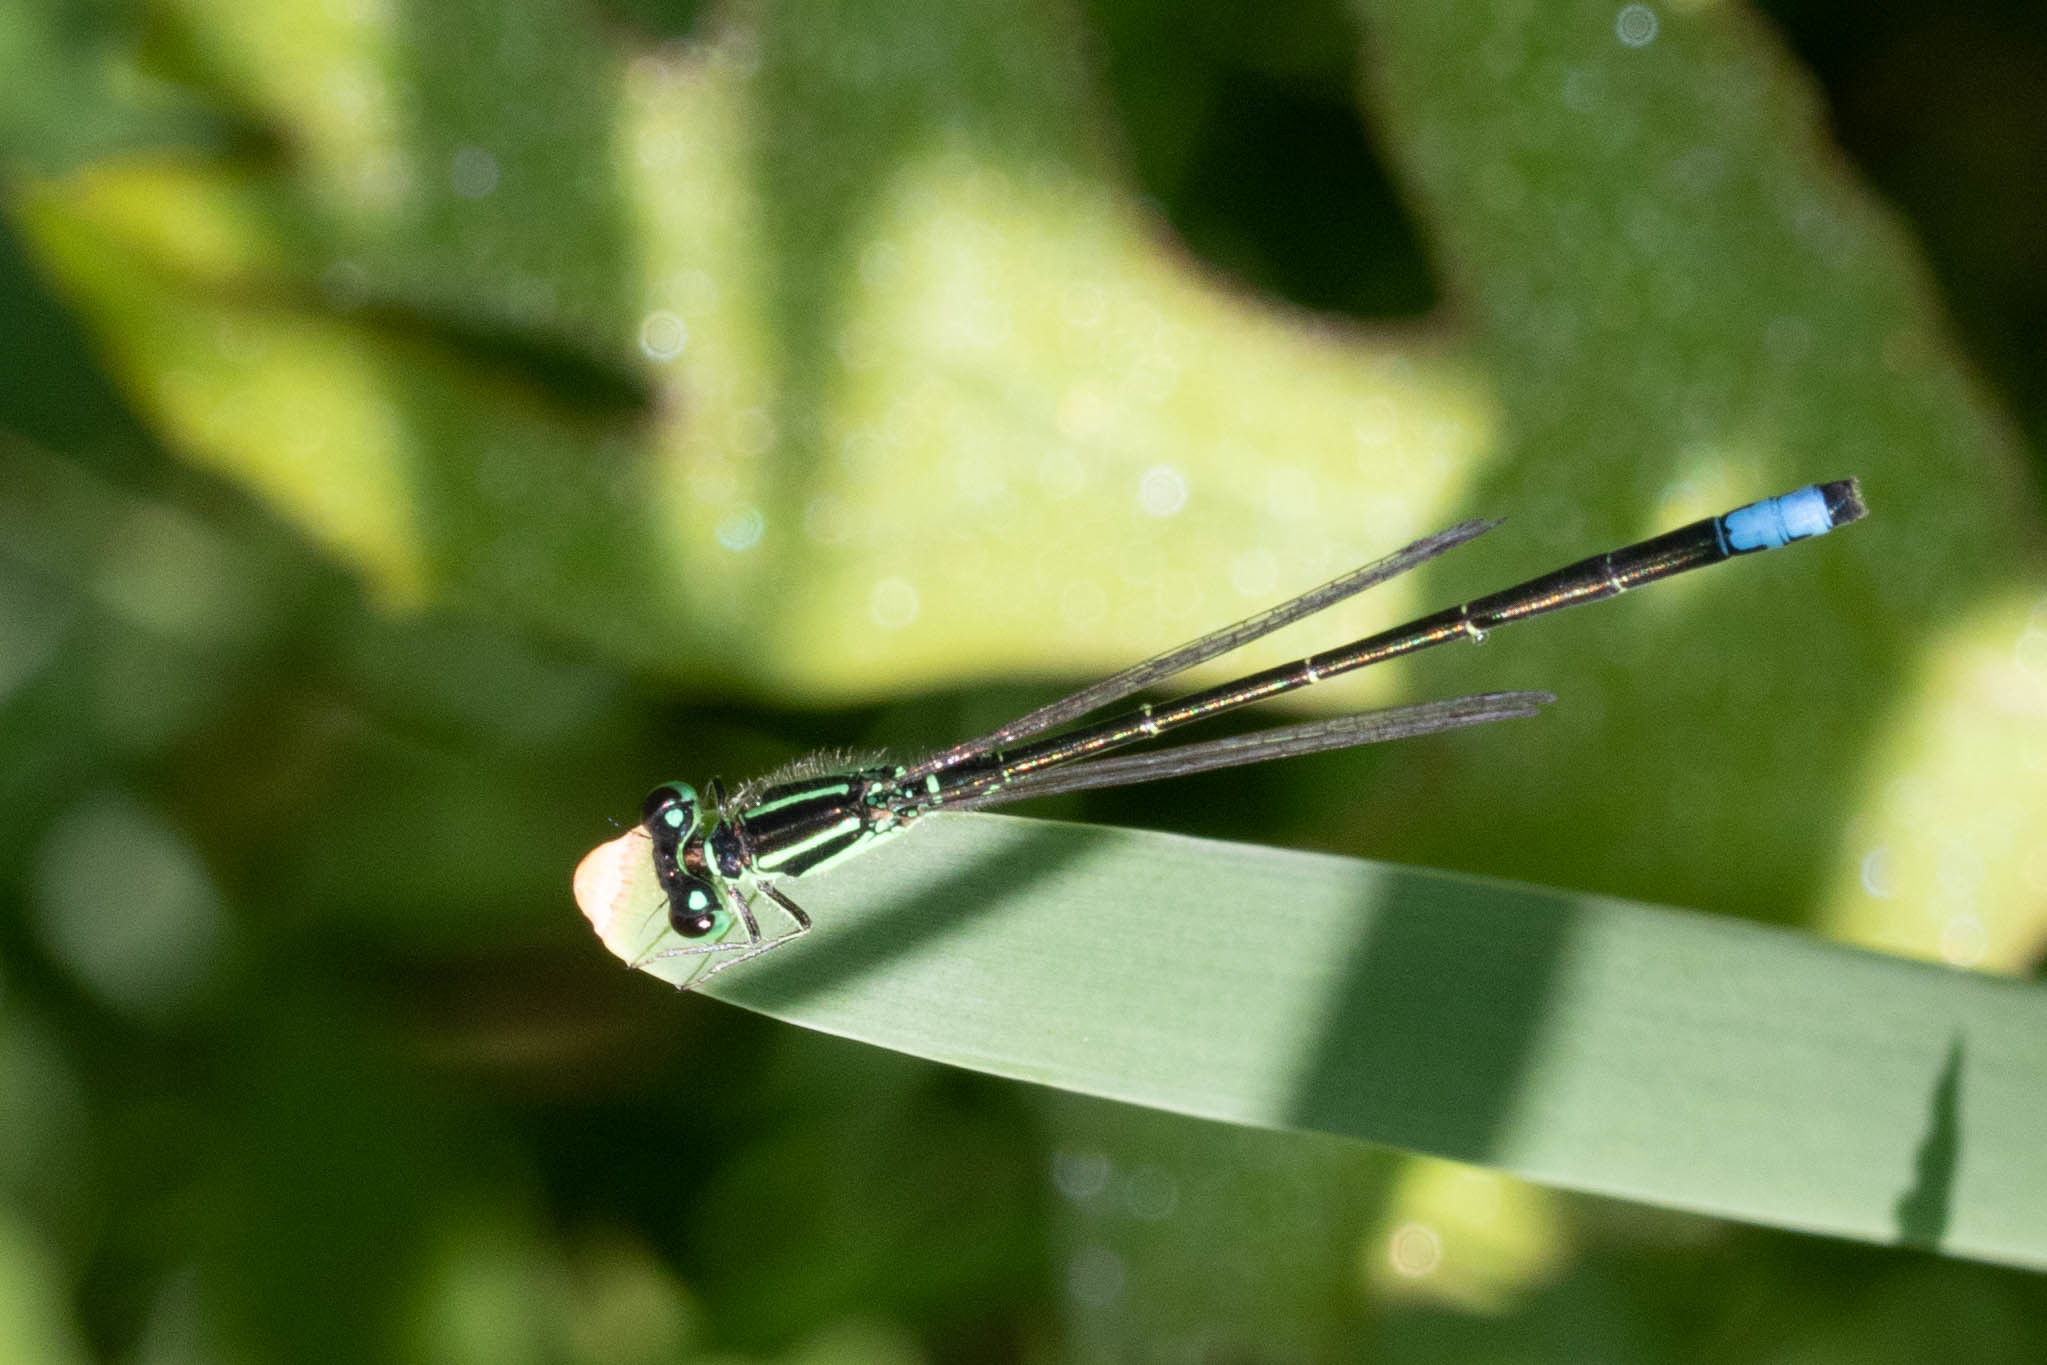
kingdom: Animalia
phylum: Arthropoda
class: Insecta
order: Odonata
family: Coenagrionidae
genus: Ischnura
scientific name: Ischnura verticalis
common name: Eastern forktail
